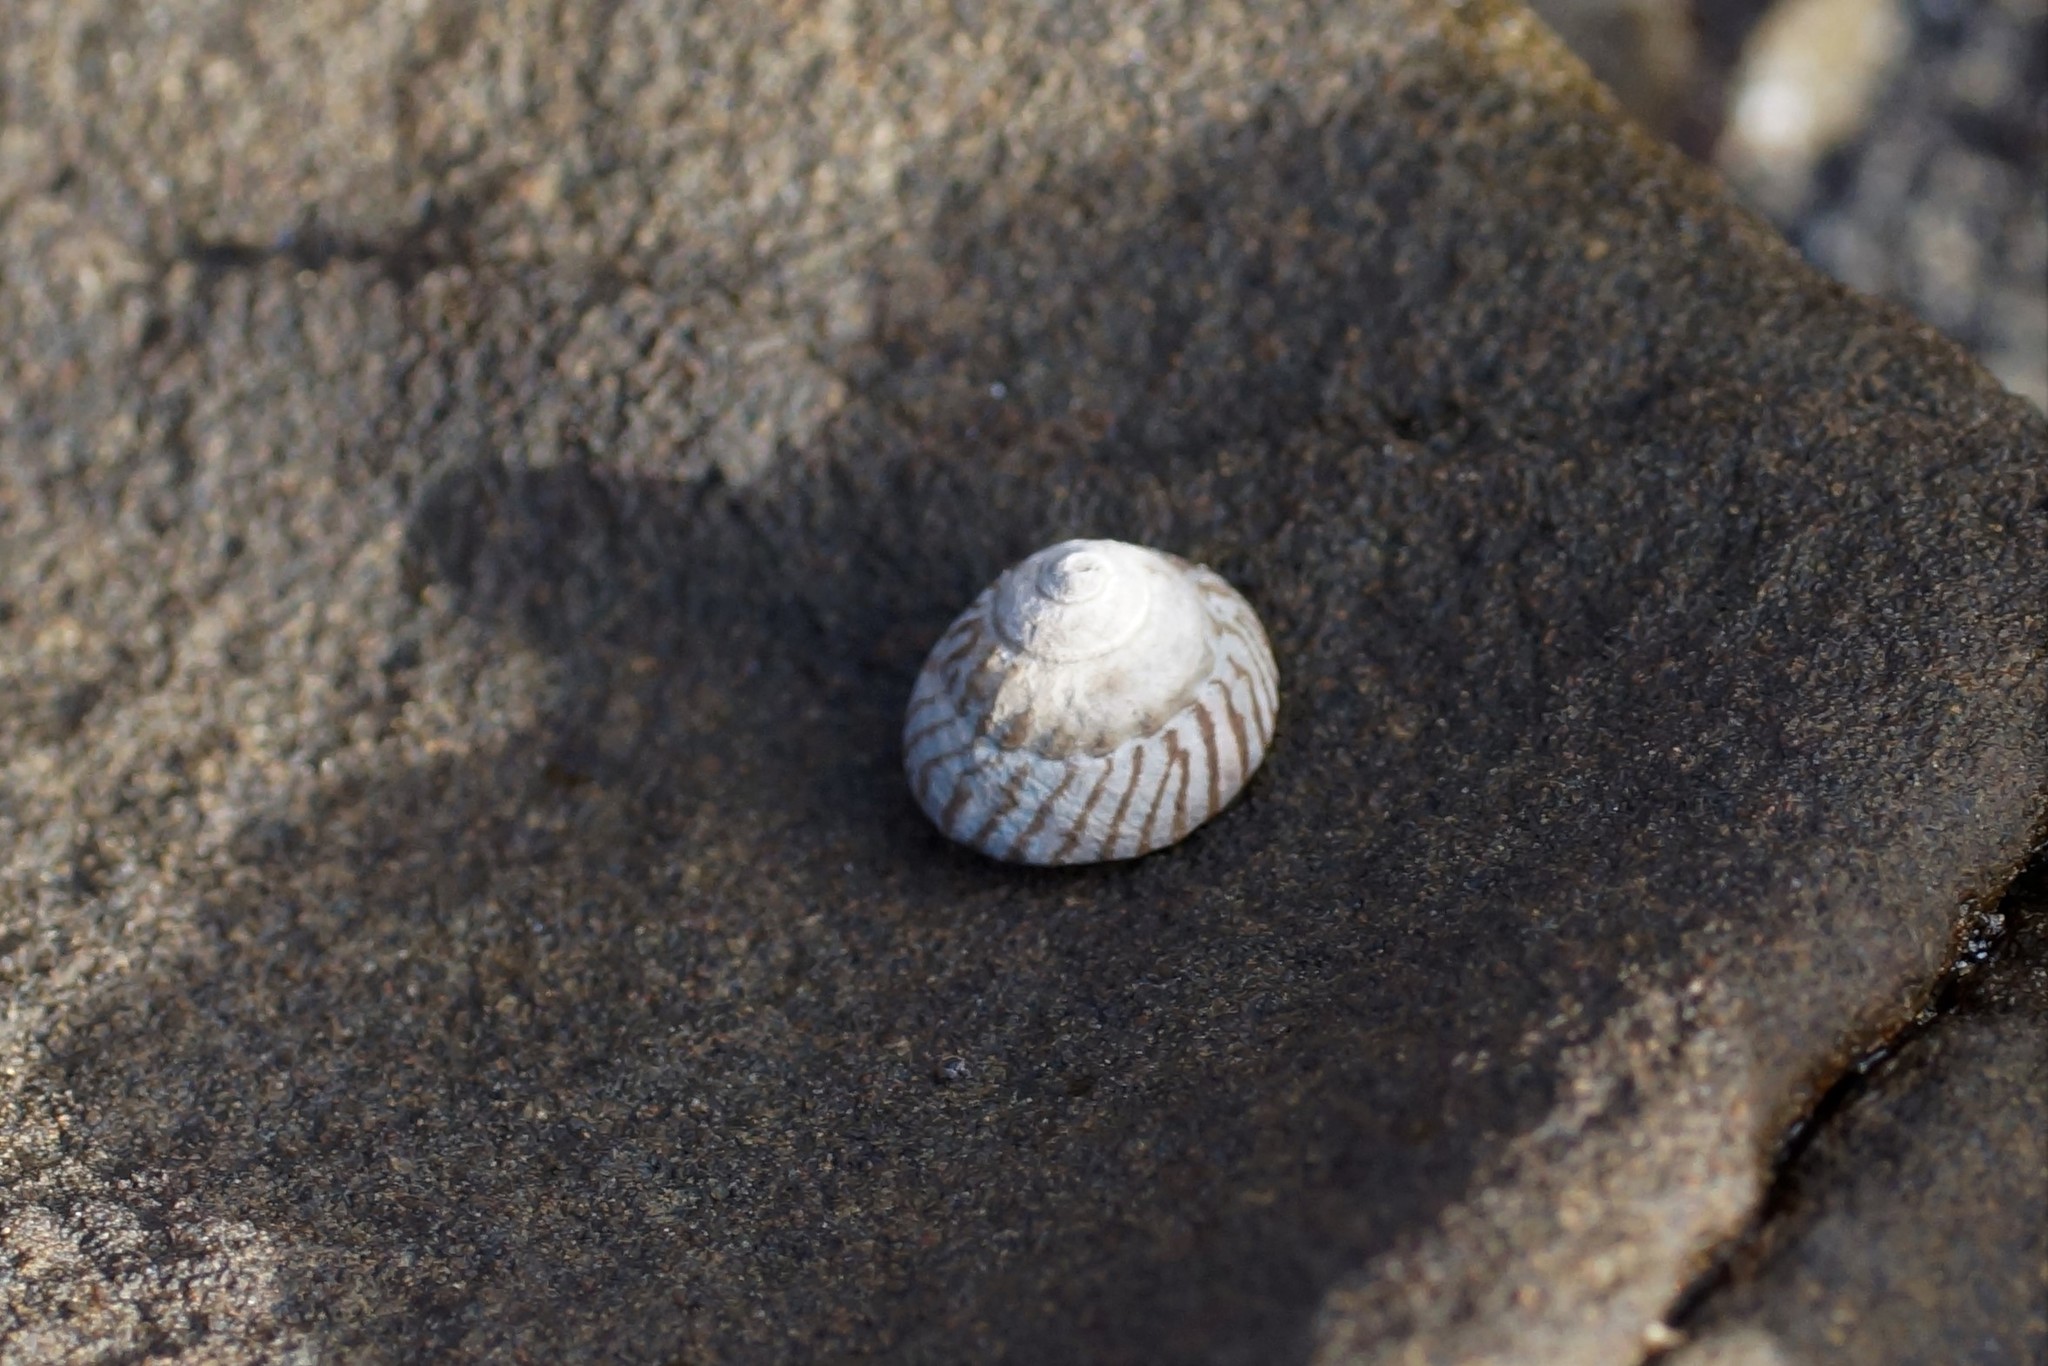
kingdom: Animalia
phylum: Mollusca
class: Gastropoda
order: Littorinimorpha
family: Littorinidae
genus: Bembicium
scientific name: Bembicium nanum
